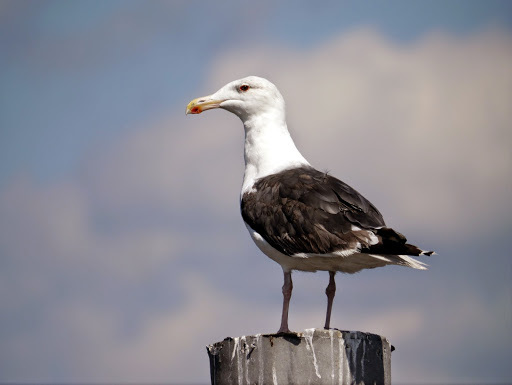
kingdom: Animalia
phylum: Chordata
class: Aves
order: Charadriiformes
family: Laridae
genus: Larus
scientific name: Larus marinus
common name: Great black-backed gull
